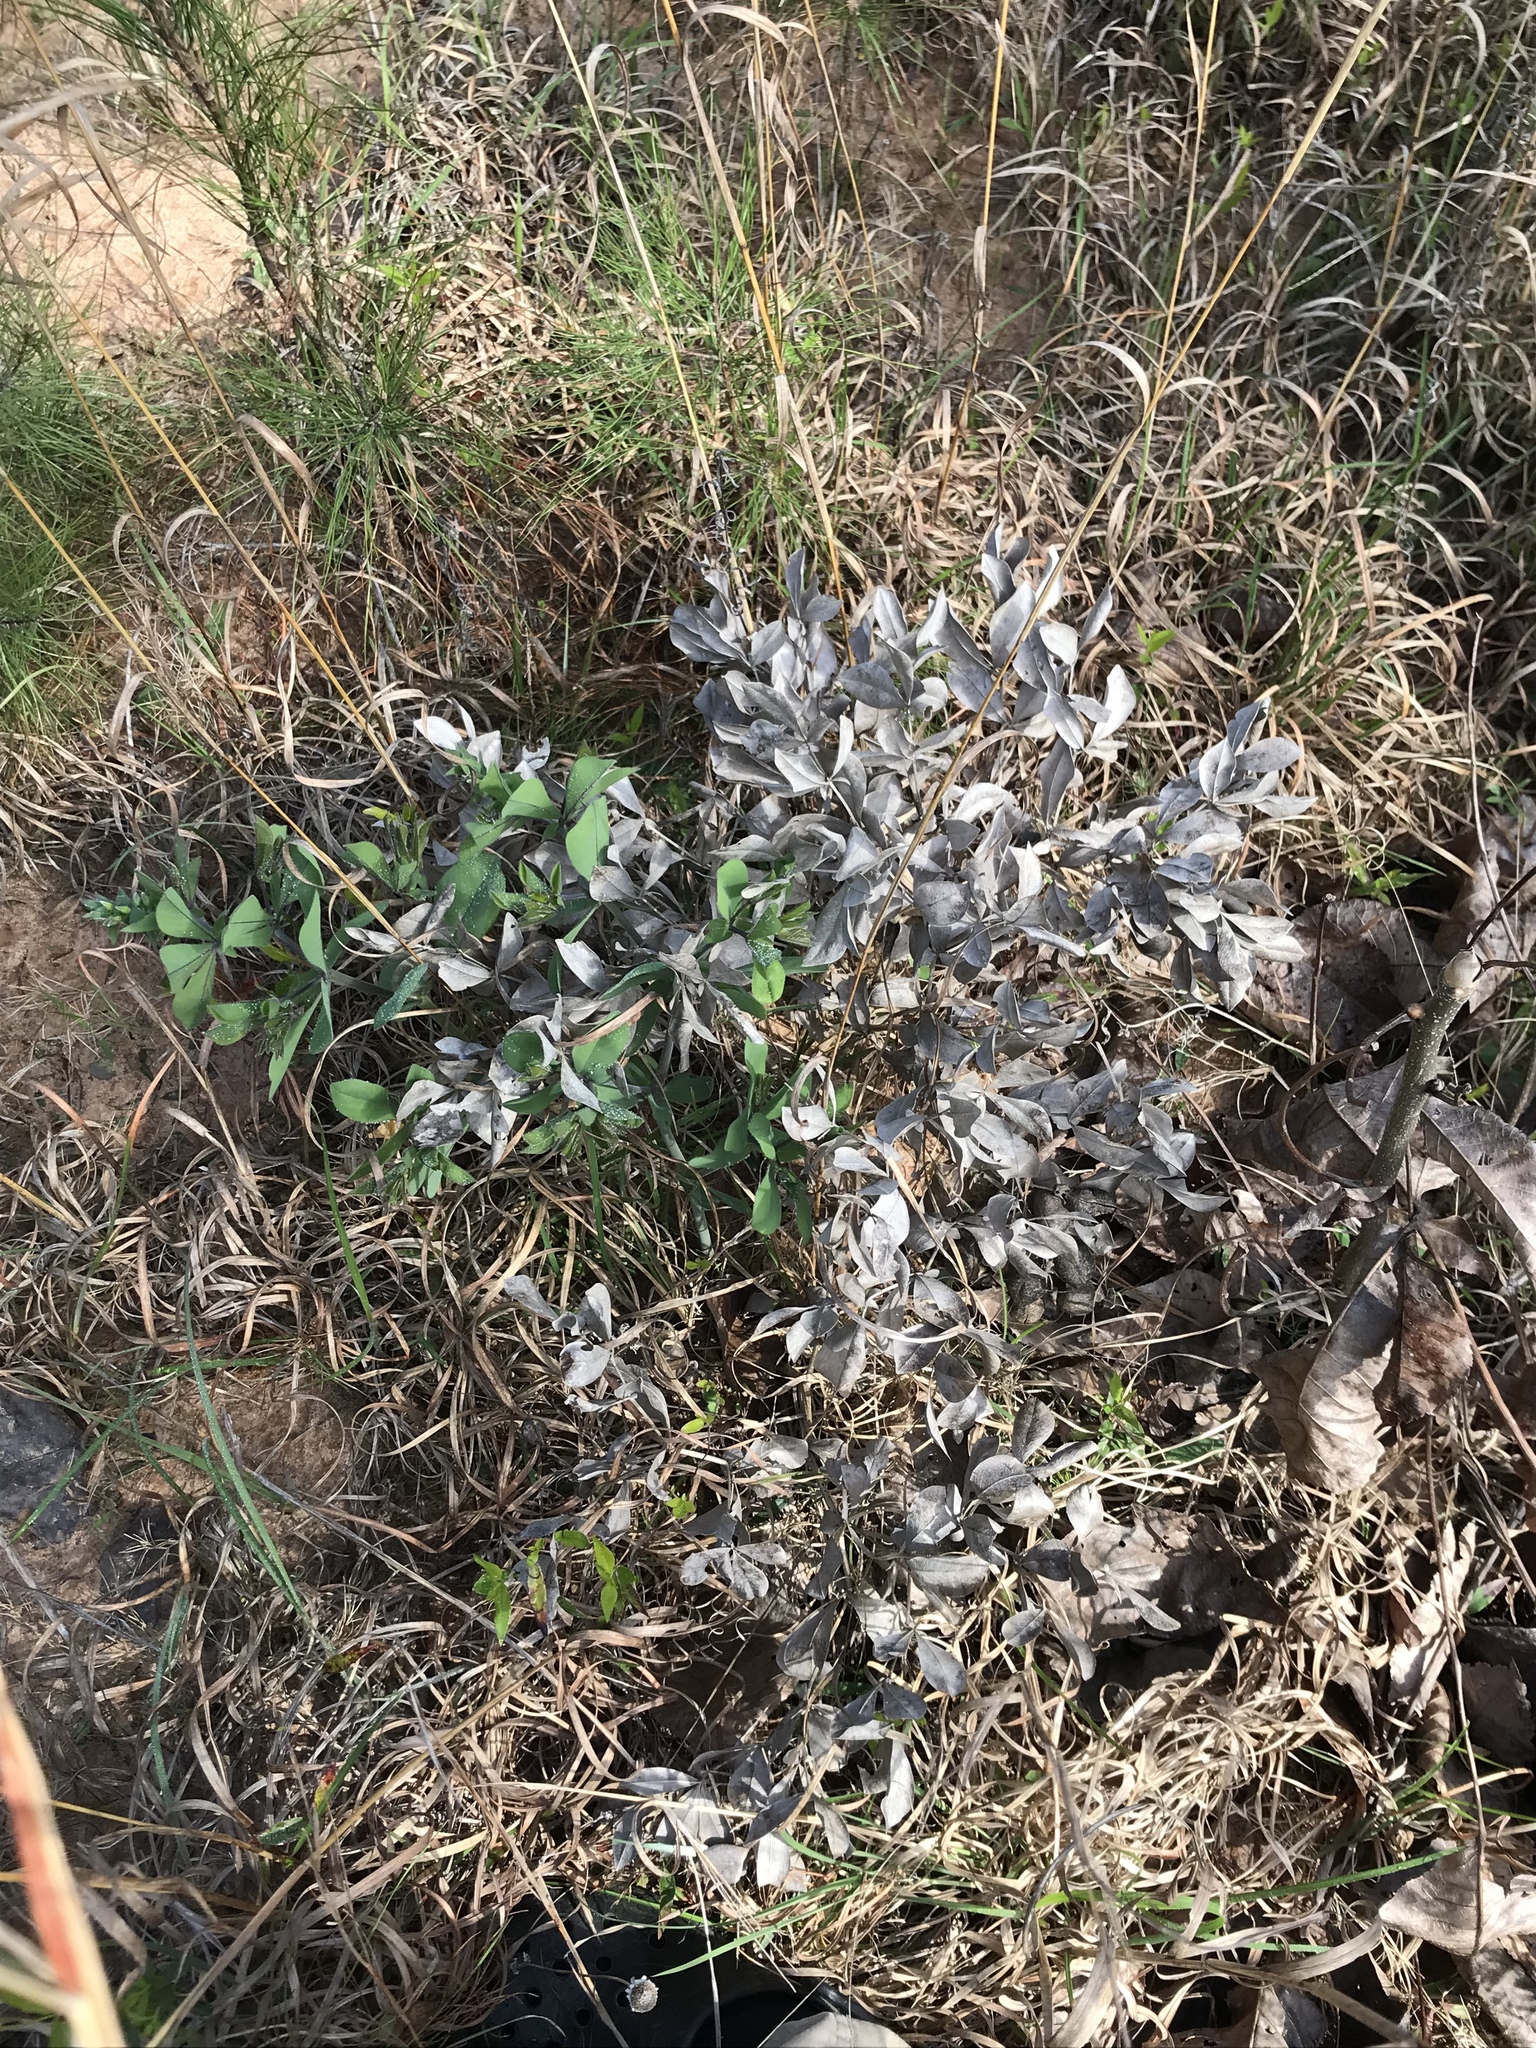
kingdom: Plantae
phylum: Tracheophyta
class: Magnoliopsida
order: Fabales
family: Fabaceae
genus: Baptisia
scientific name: Baptisia bracteata
